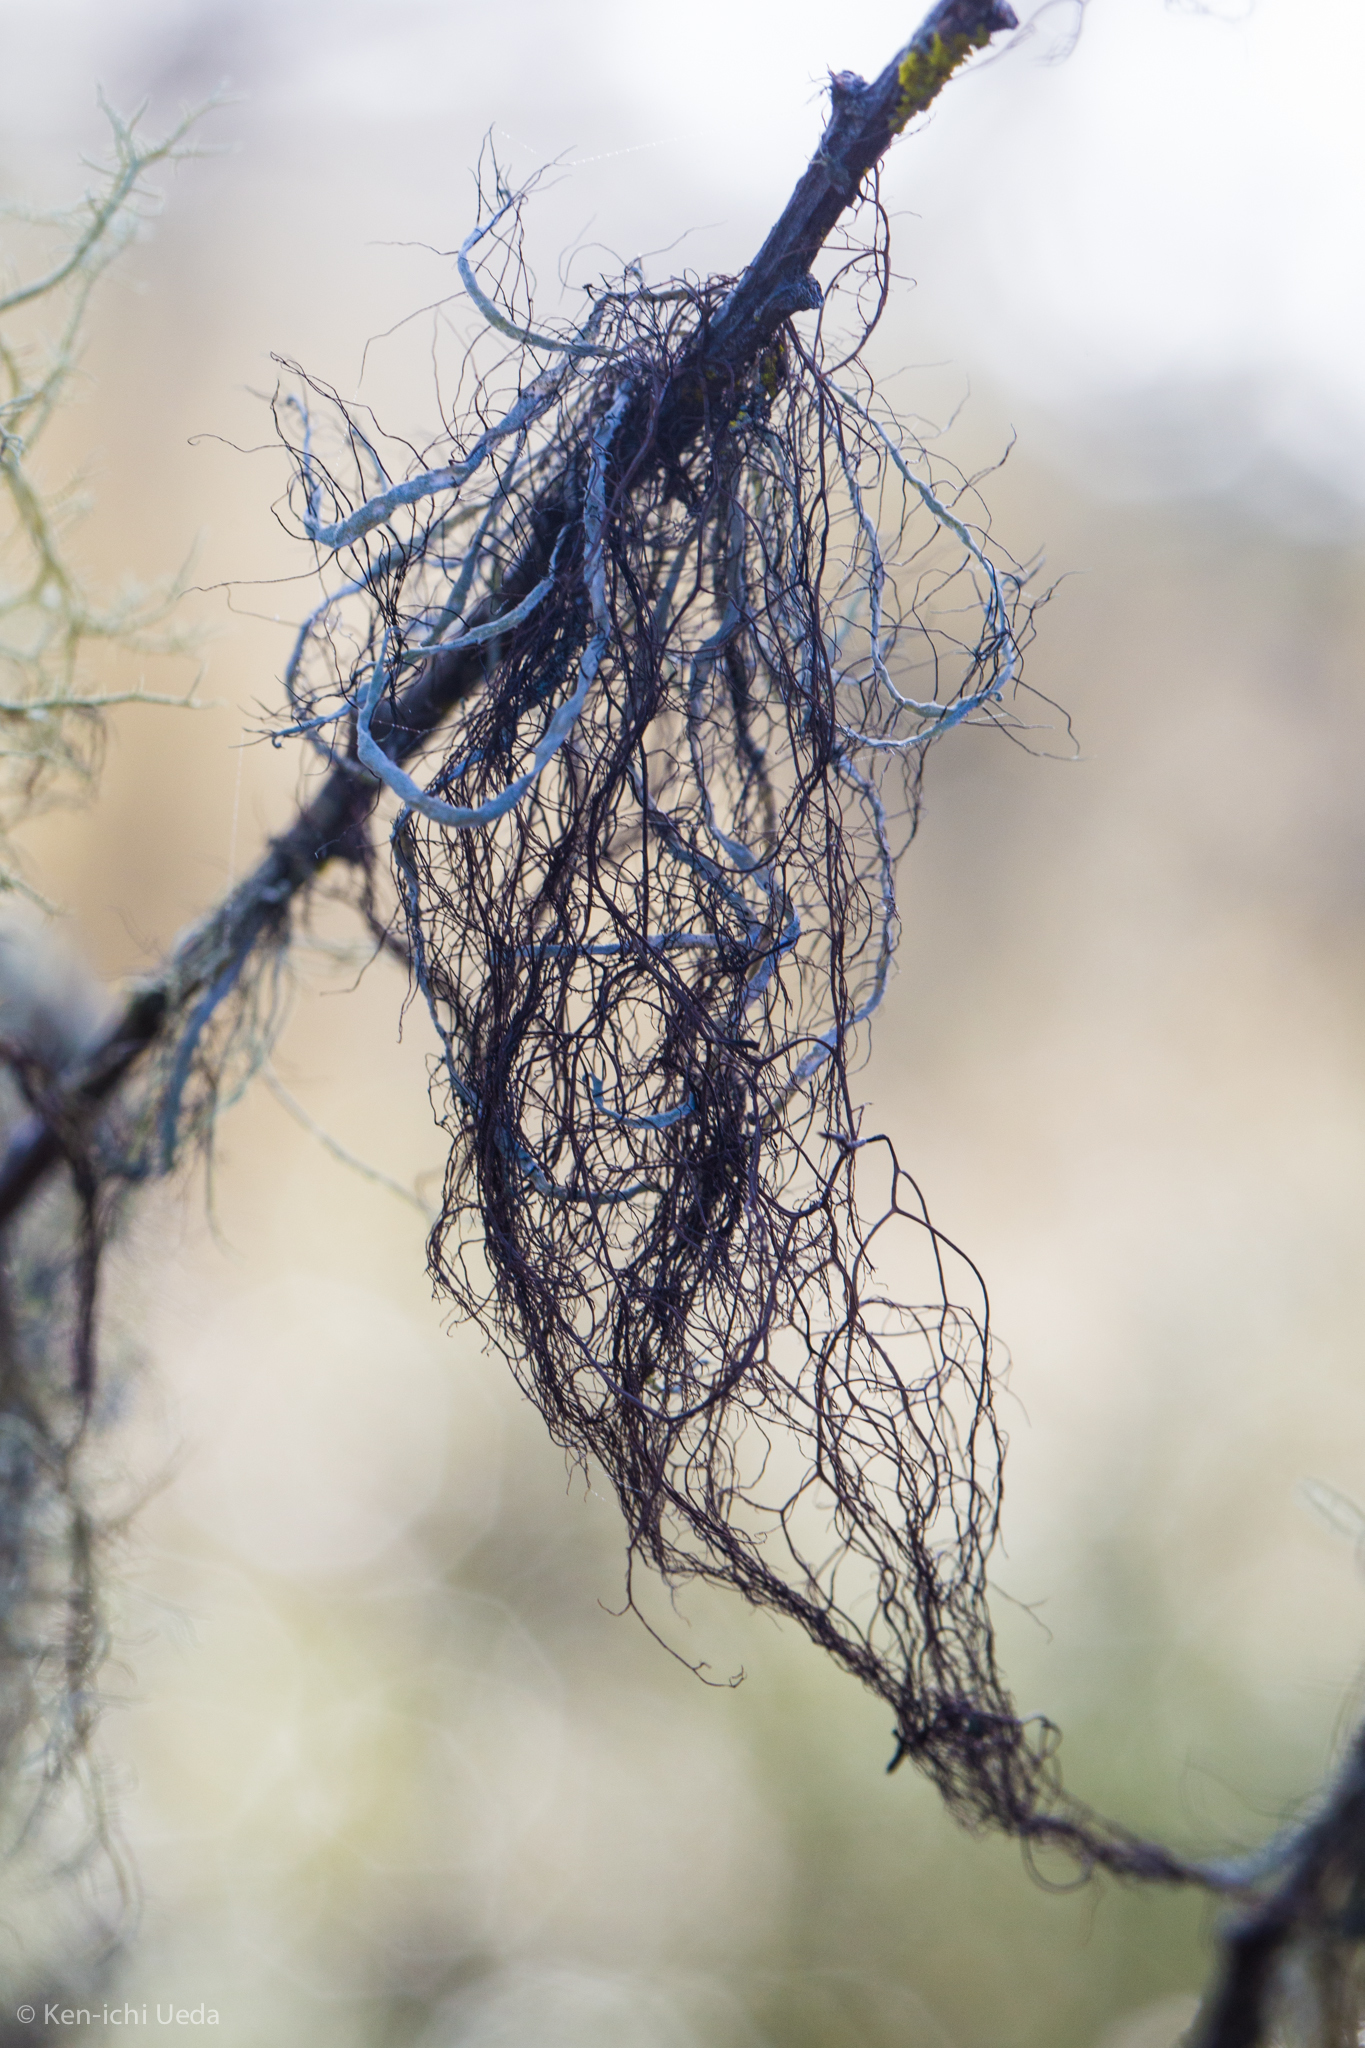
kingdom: Fungi
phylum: Ascomycota
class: Lecanoromycetes
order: Lecanorales
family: Parmeliaceae
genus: Sulcaria
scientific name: Sulcaria spiralifera
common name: Dune hair lichen
